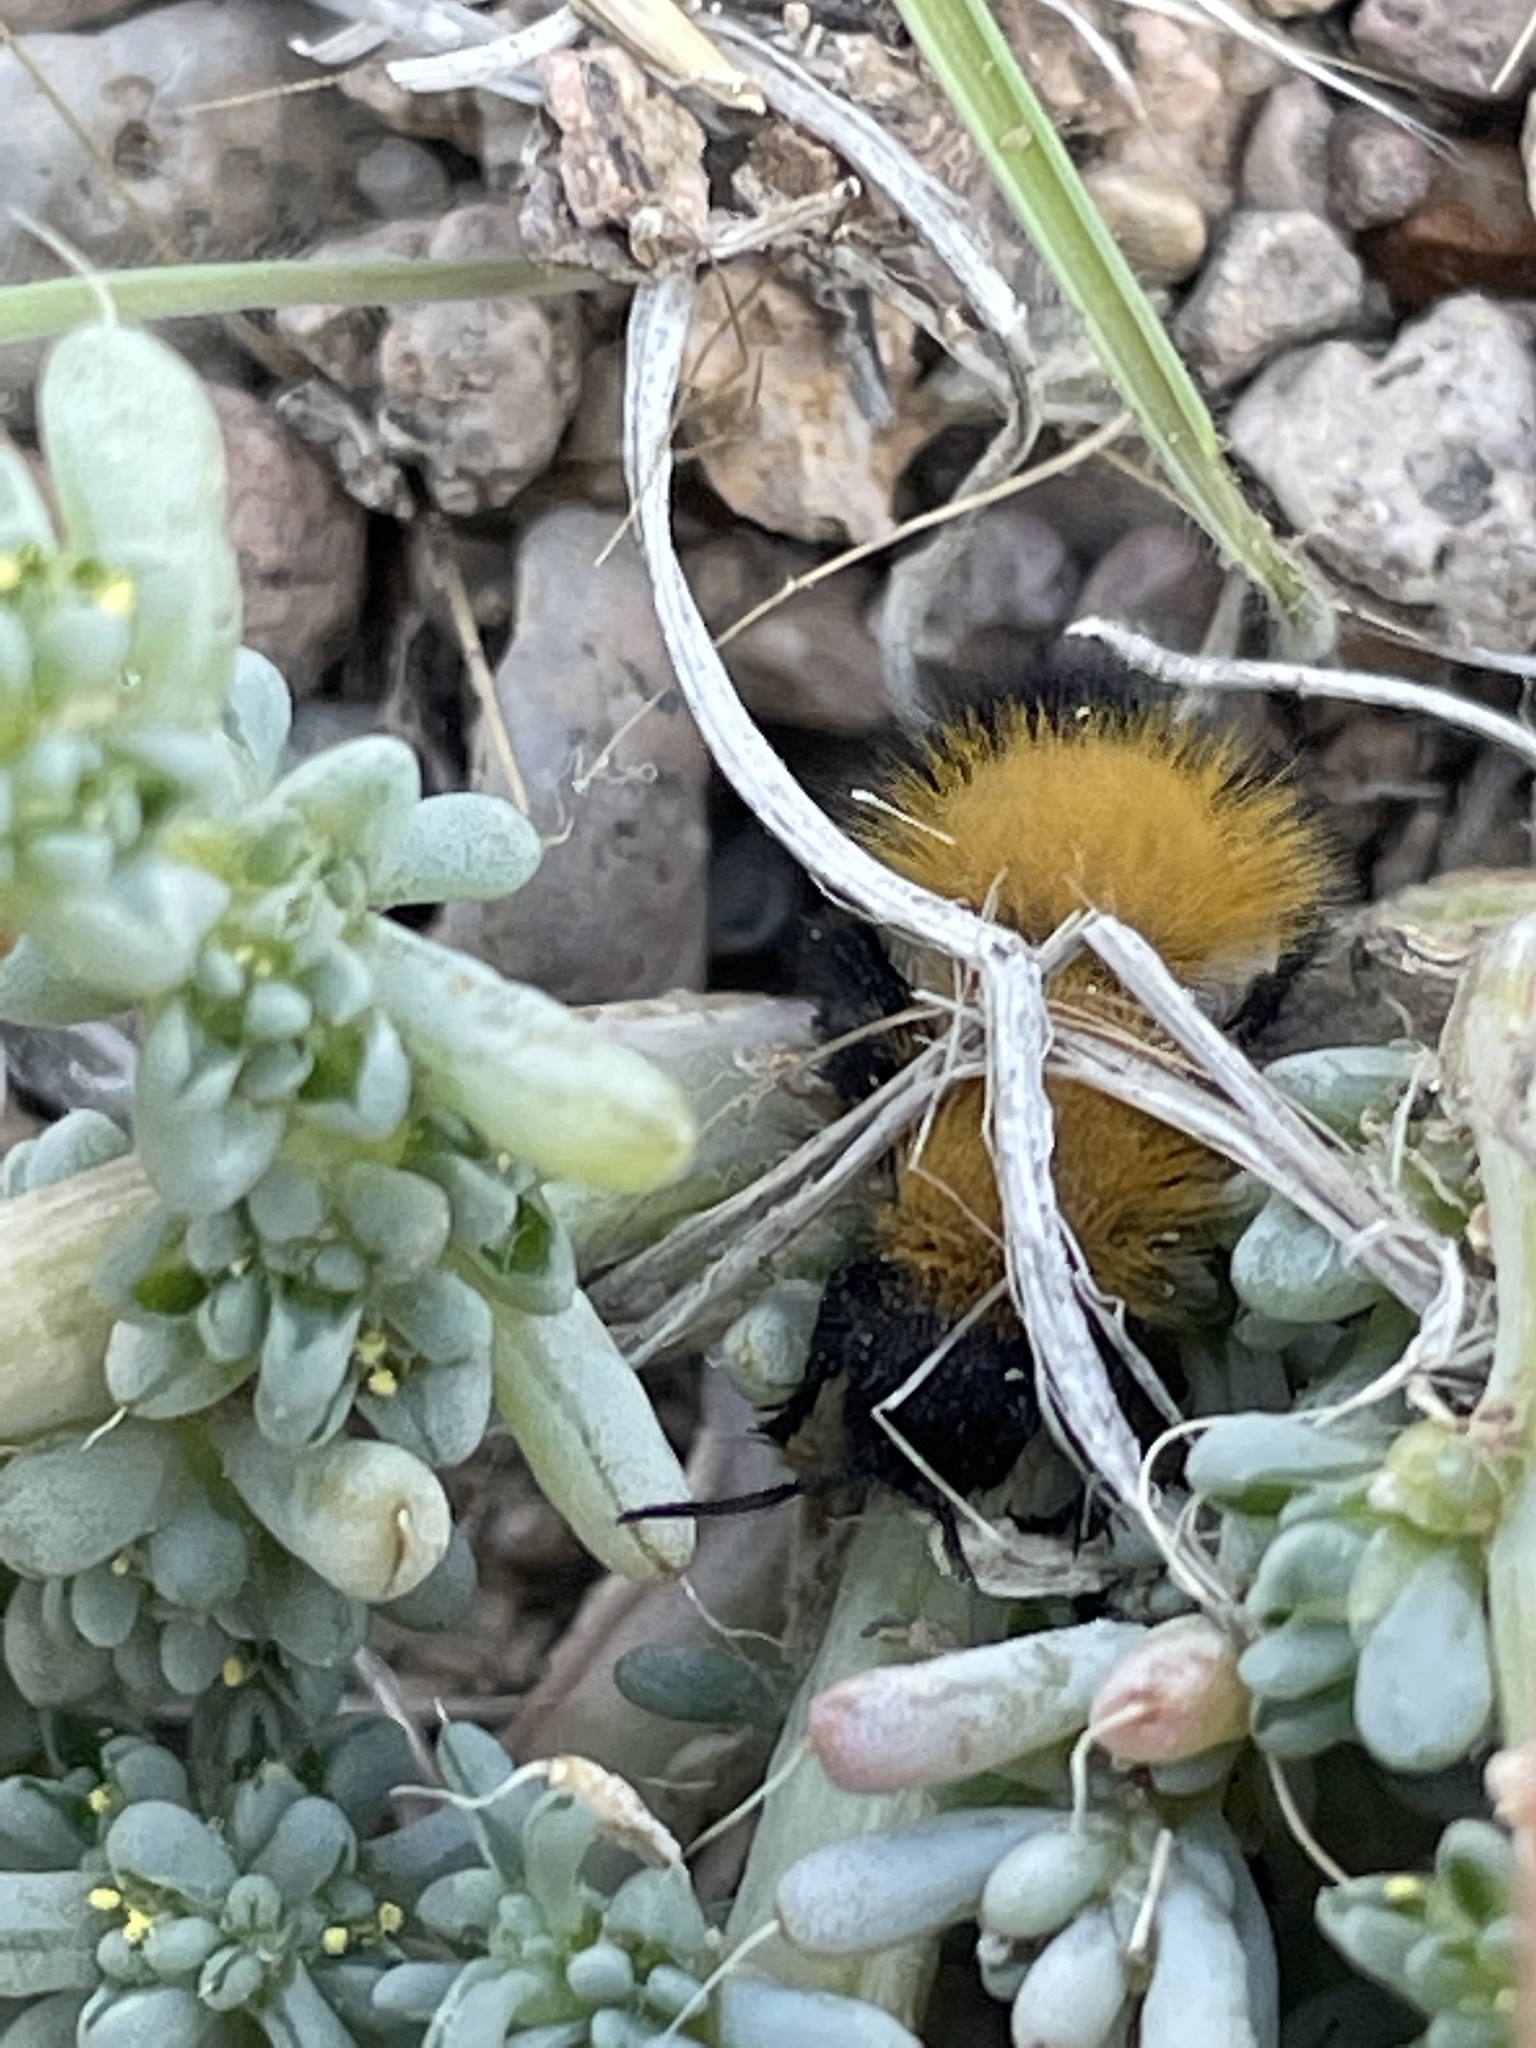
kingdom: Plantae
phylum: Tracheophyta
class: Magnoliopsida
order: Caryophyllales
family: Amaranthaceae
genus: Halogeton
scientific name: Halogeton glomeratus
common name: Saltlover
